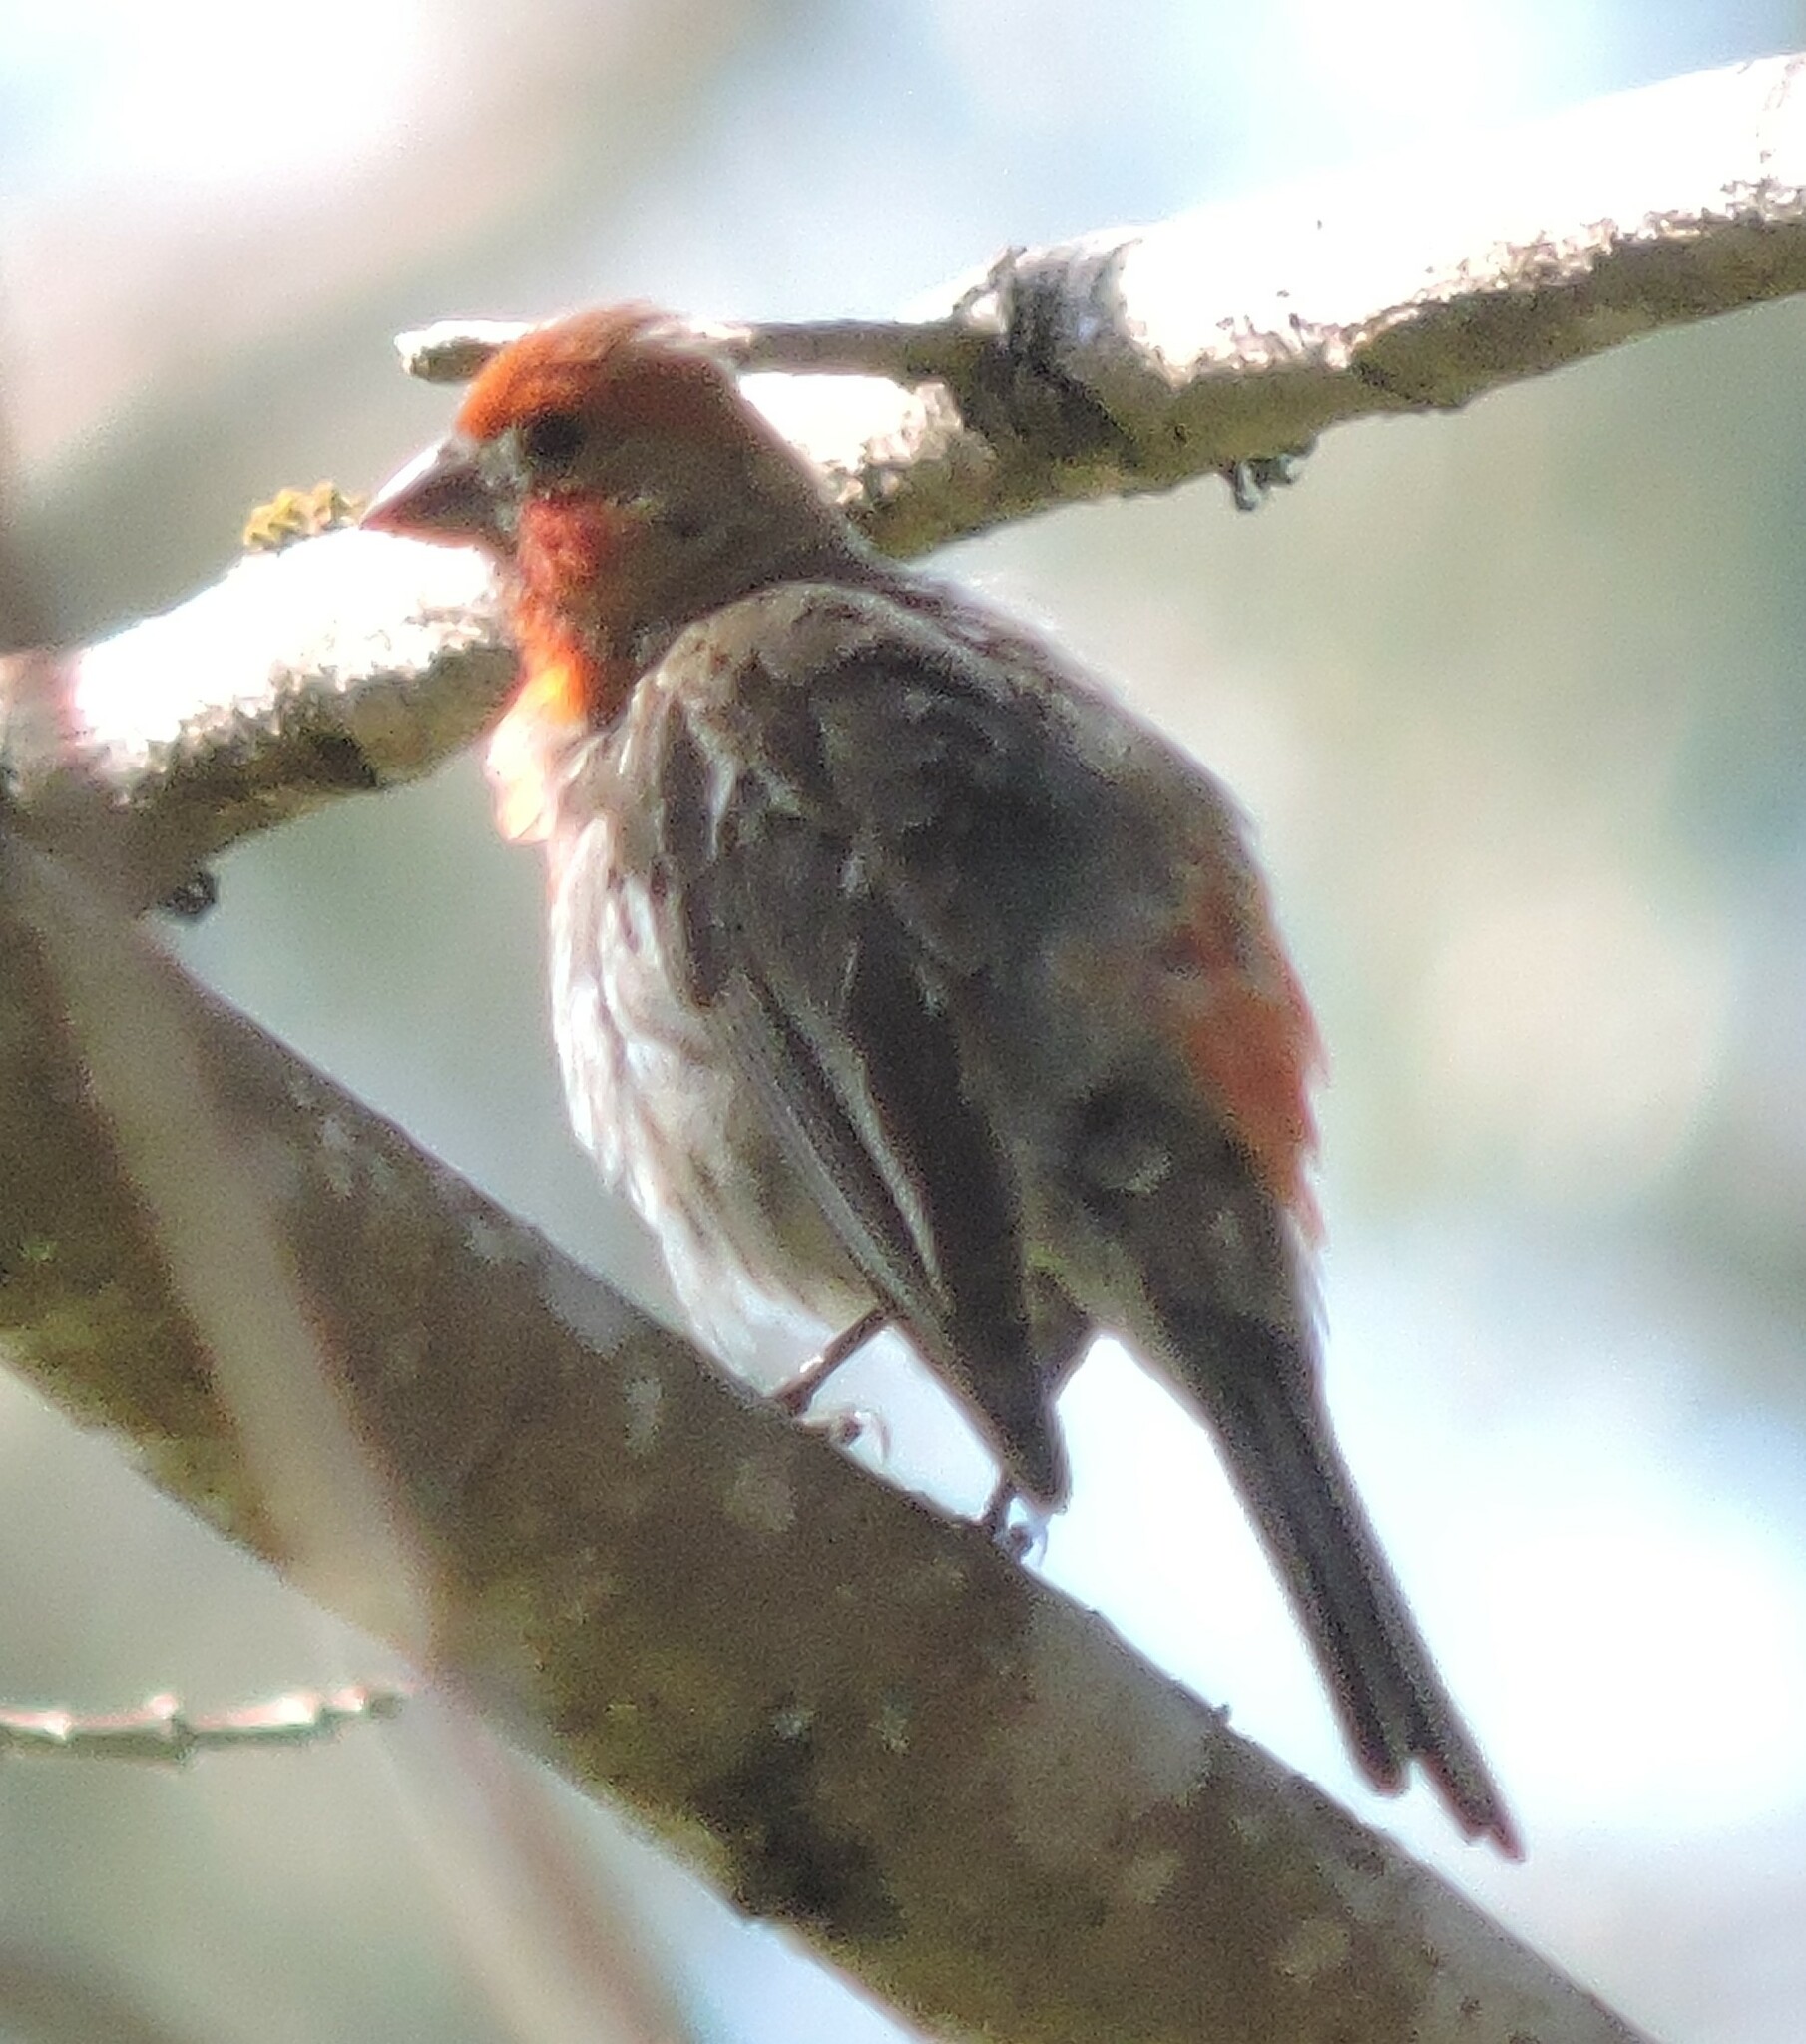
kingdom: Animalia
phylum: Chordata
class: Aves
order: Passeriformes
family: Fringillidae
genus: Haemorhous
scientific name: Haemorhous mexicanus
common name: House finch
